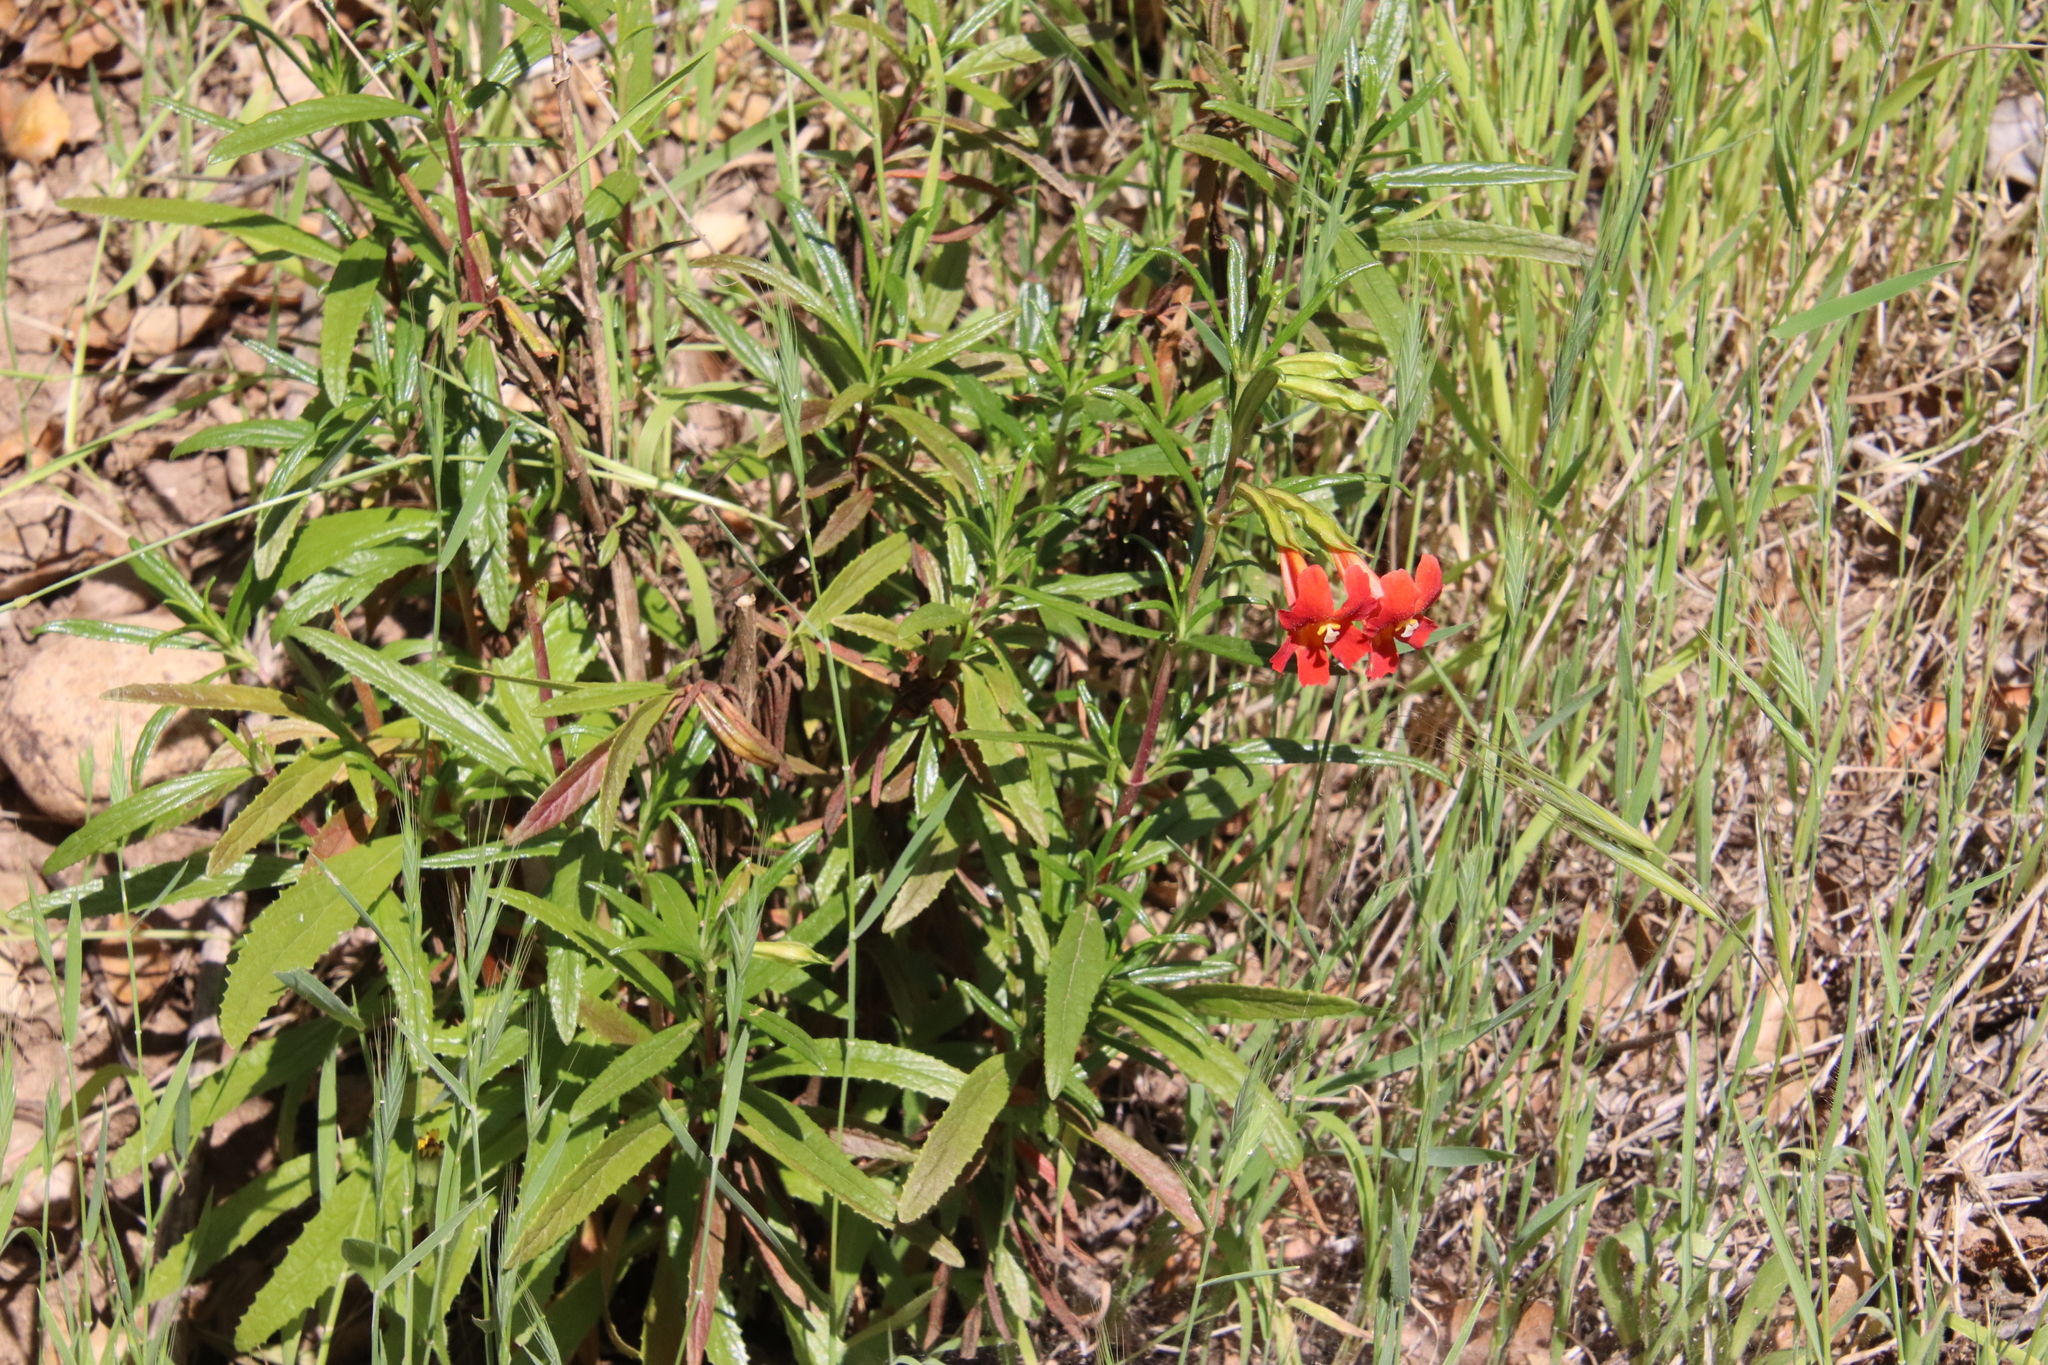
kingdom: Plantae
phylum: Tracheophyta
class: Magnoliopsida
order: Lamiales
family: Phrymaceae
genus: Diplacus
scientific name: Diplacus puniceus
